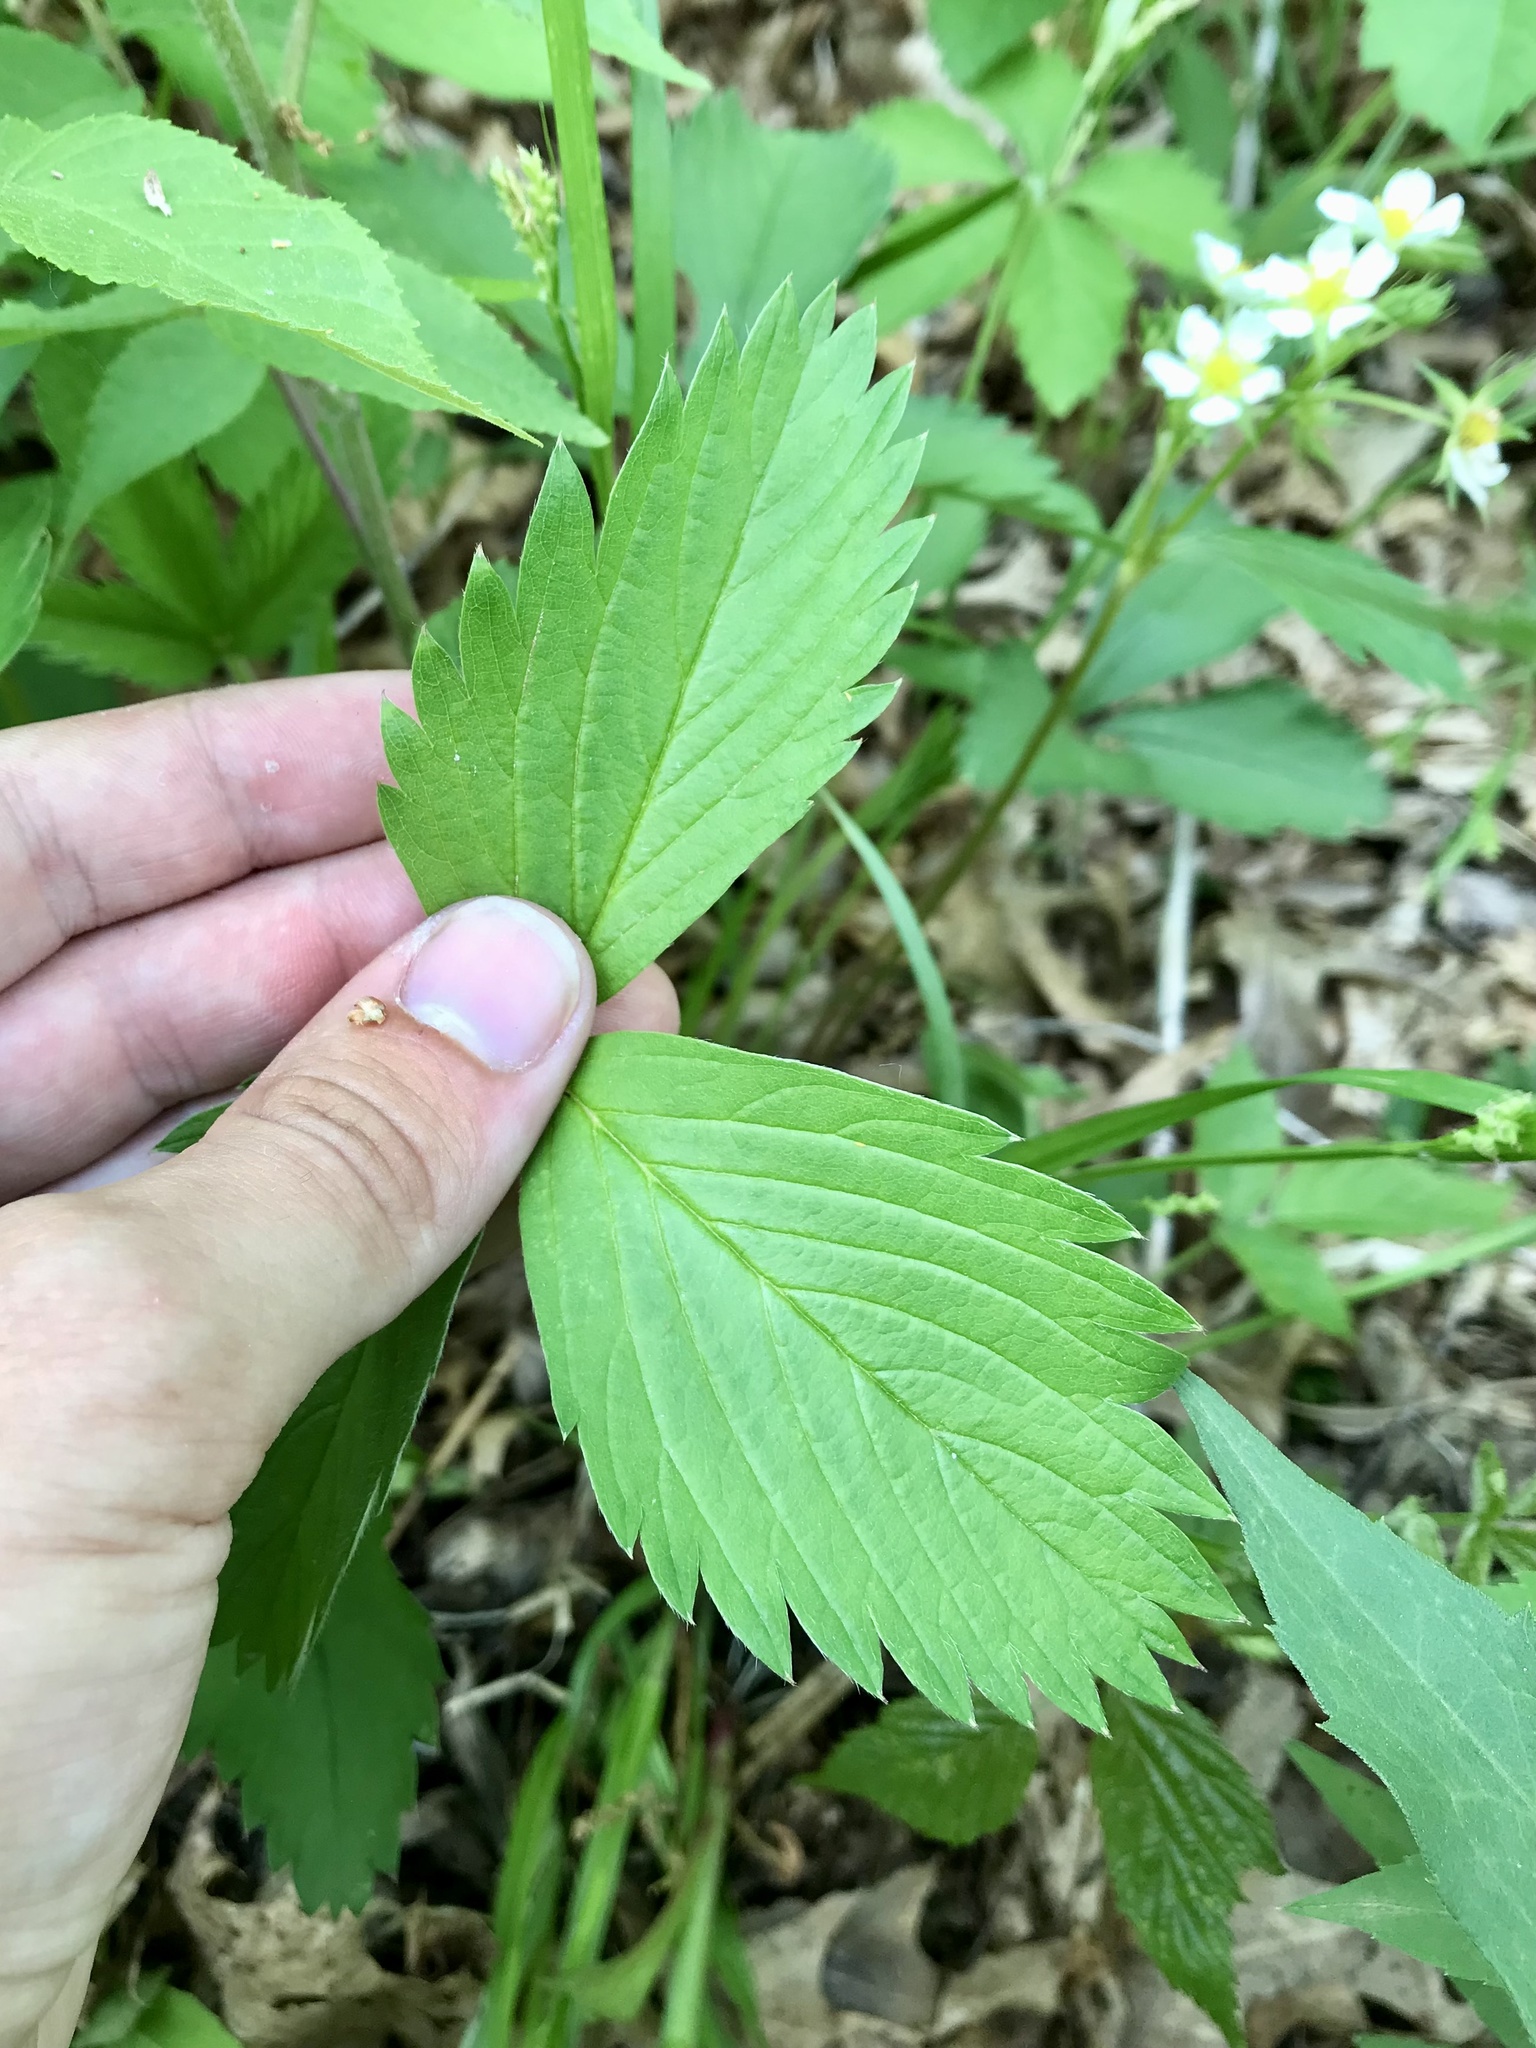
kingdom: Plantae
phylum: Tracheophyta
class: Magnoliopsida
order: Rosales
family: Rosaceae
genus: Fragaria
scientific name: Fragaria vesca
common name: Wild strawberry
